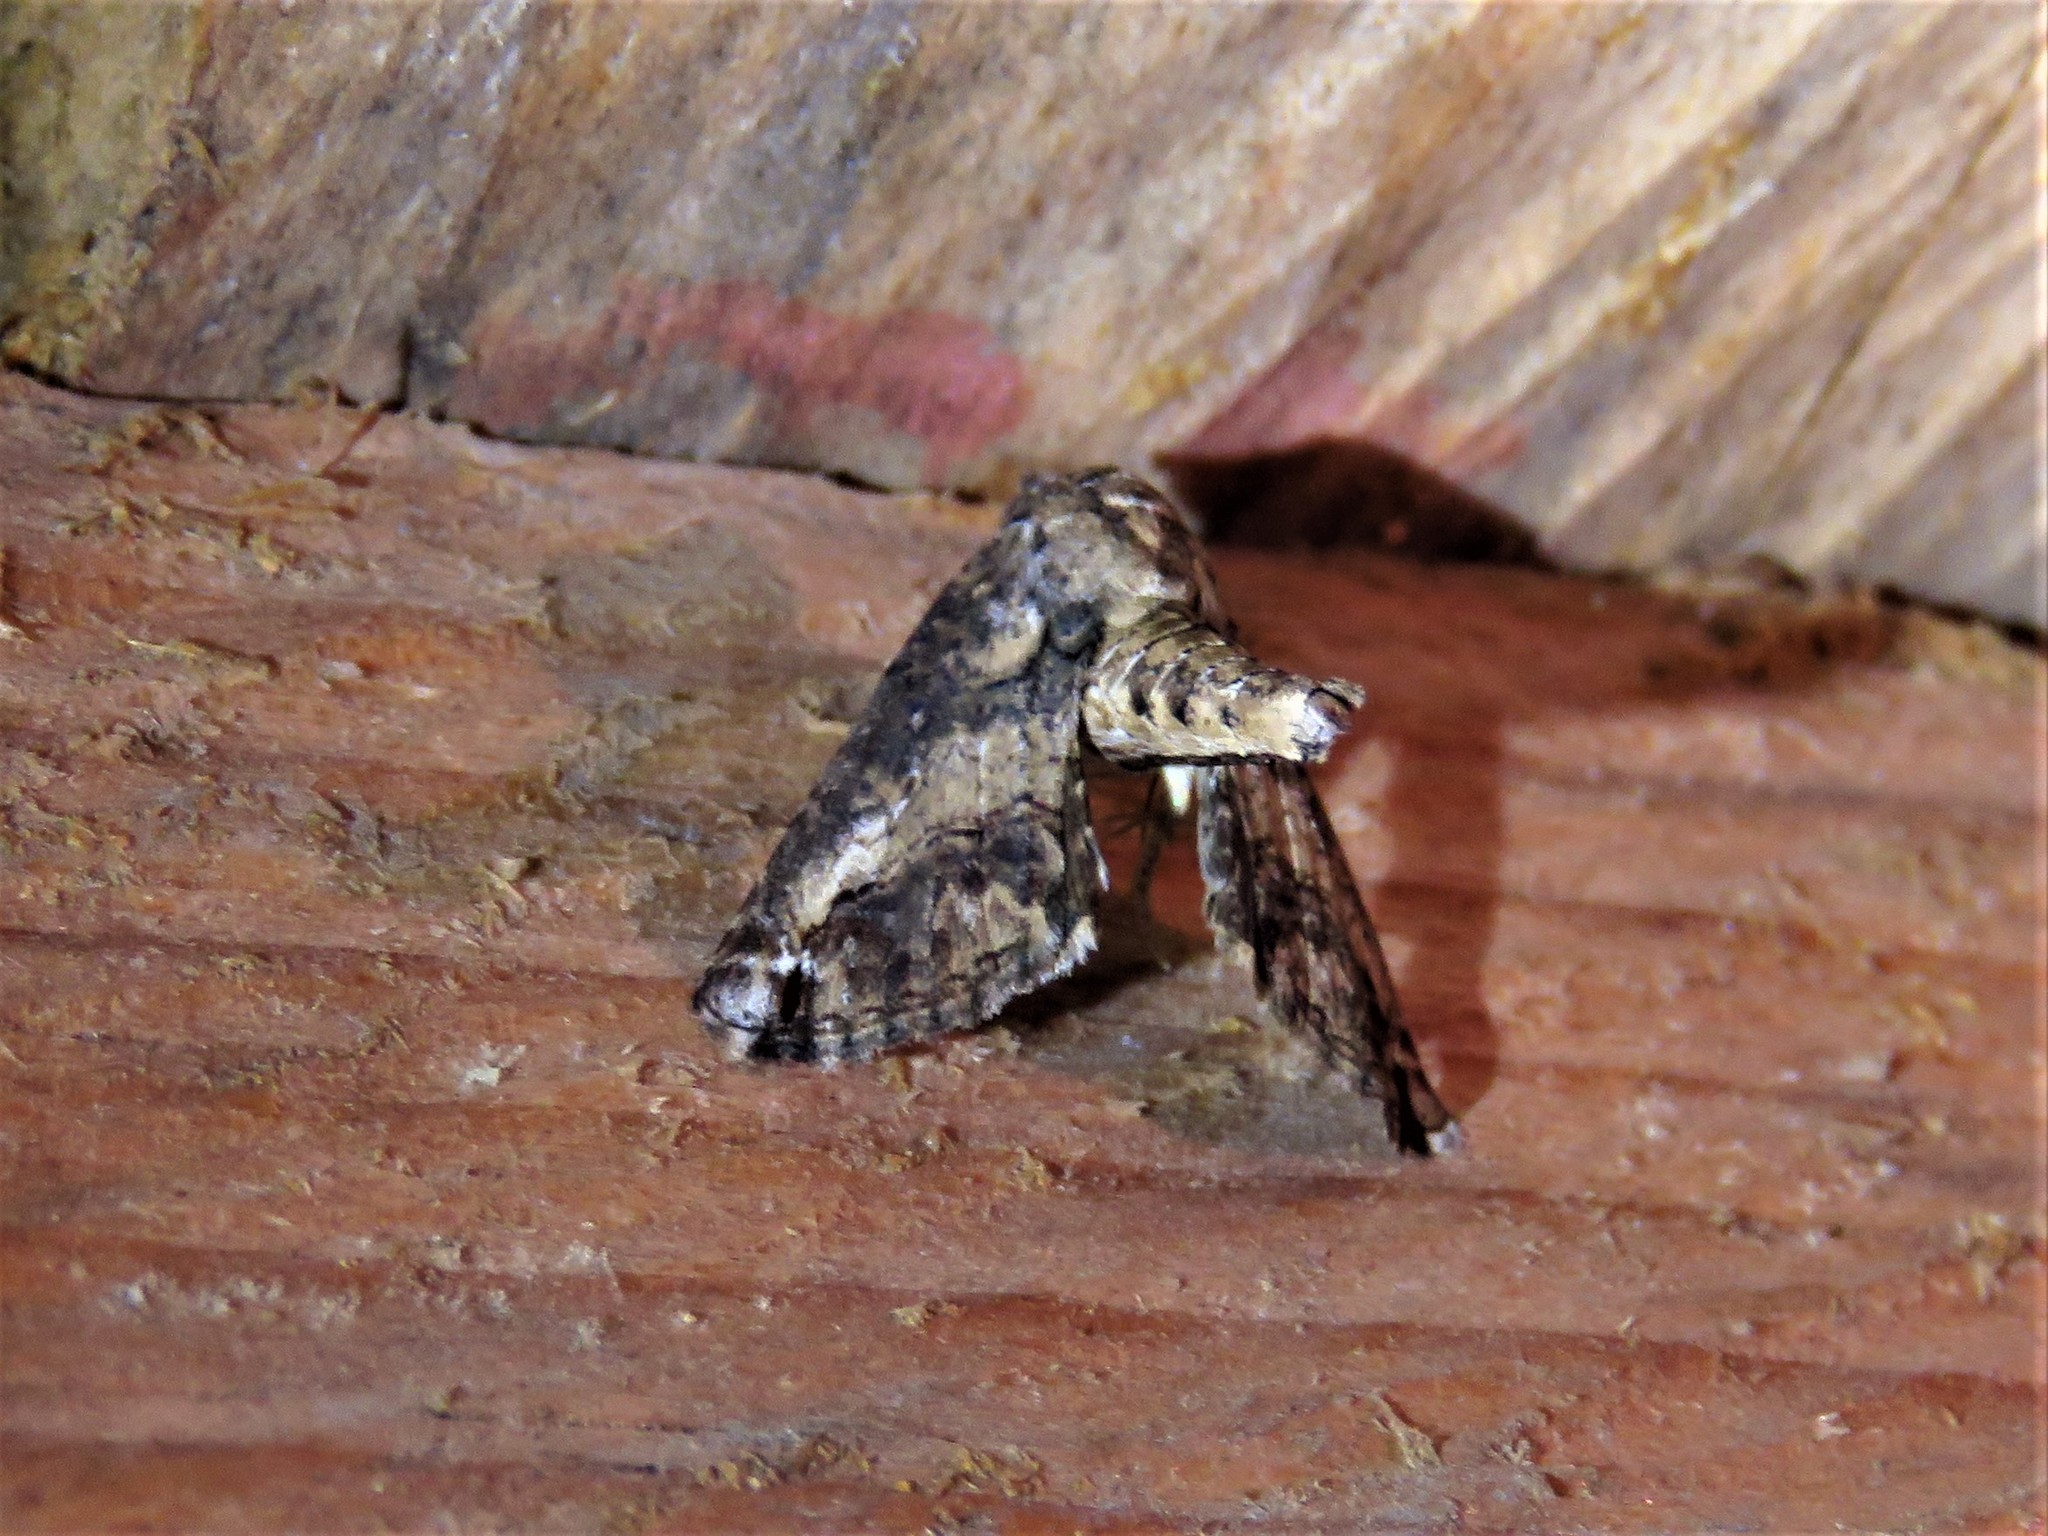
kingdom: Animalia
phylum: Arthropoda
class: Insecta
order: Lepidoptera
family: Euteliidae
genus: Paectes
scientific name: Paectes arcigera
